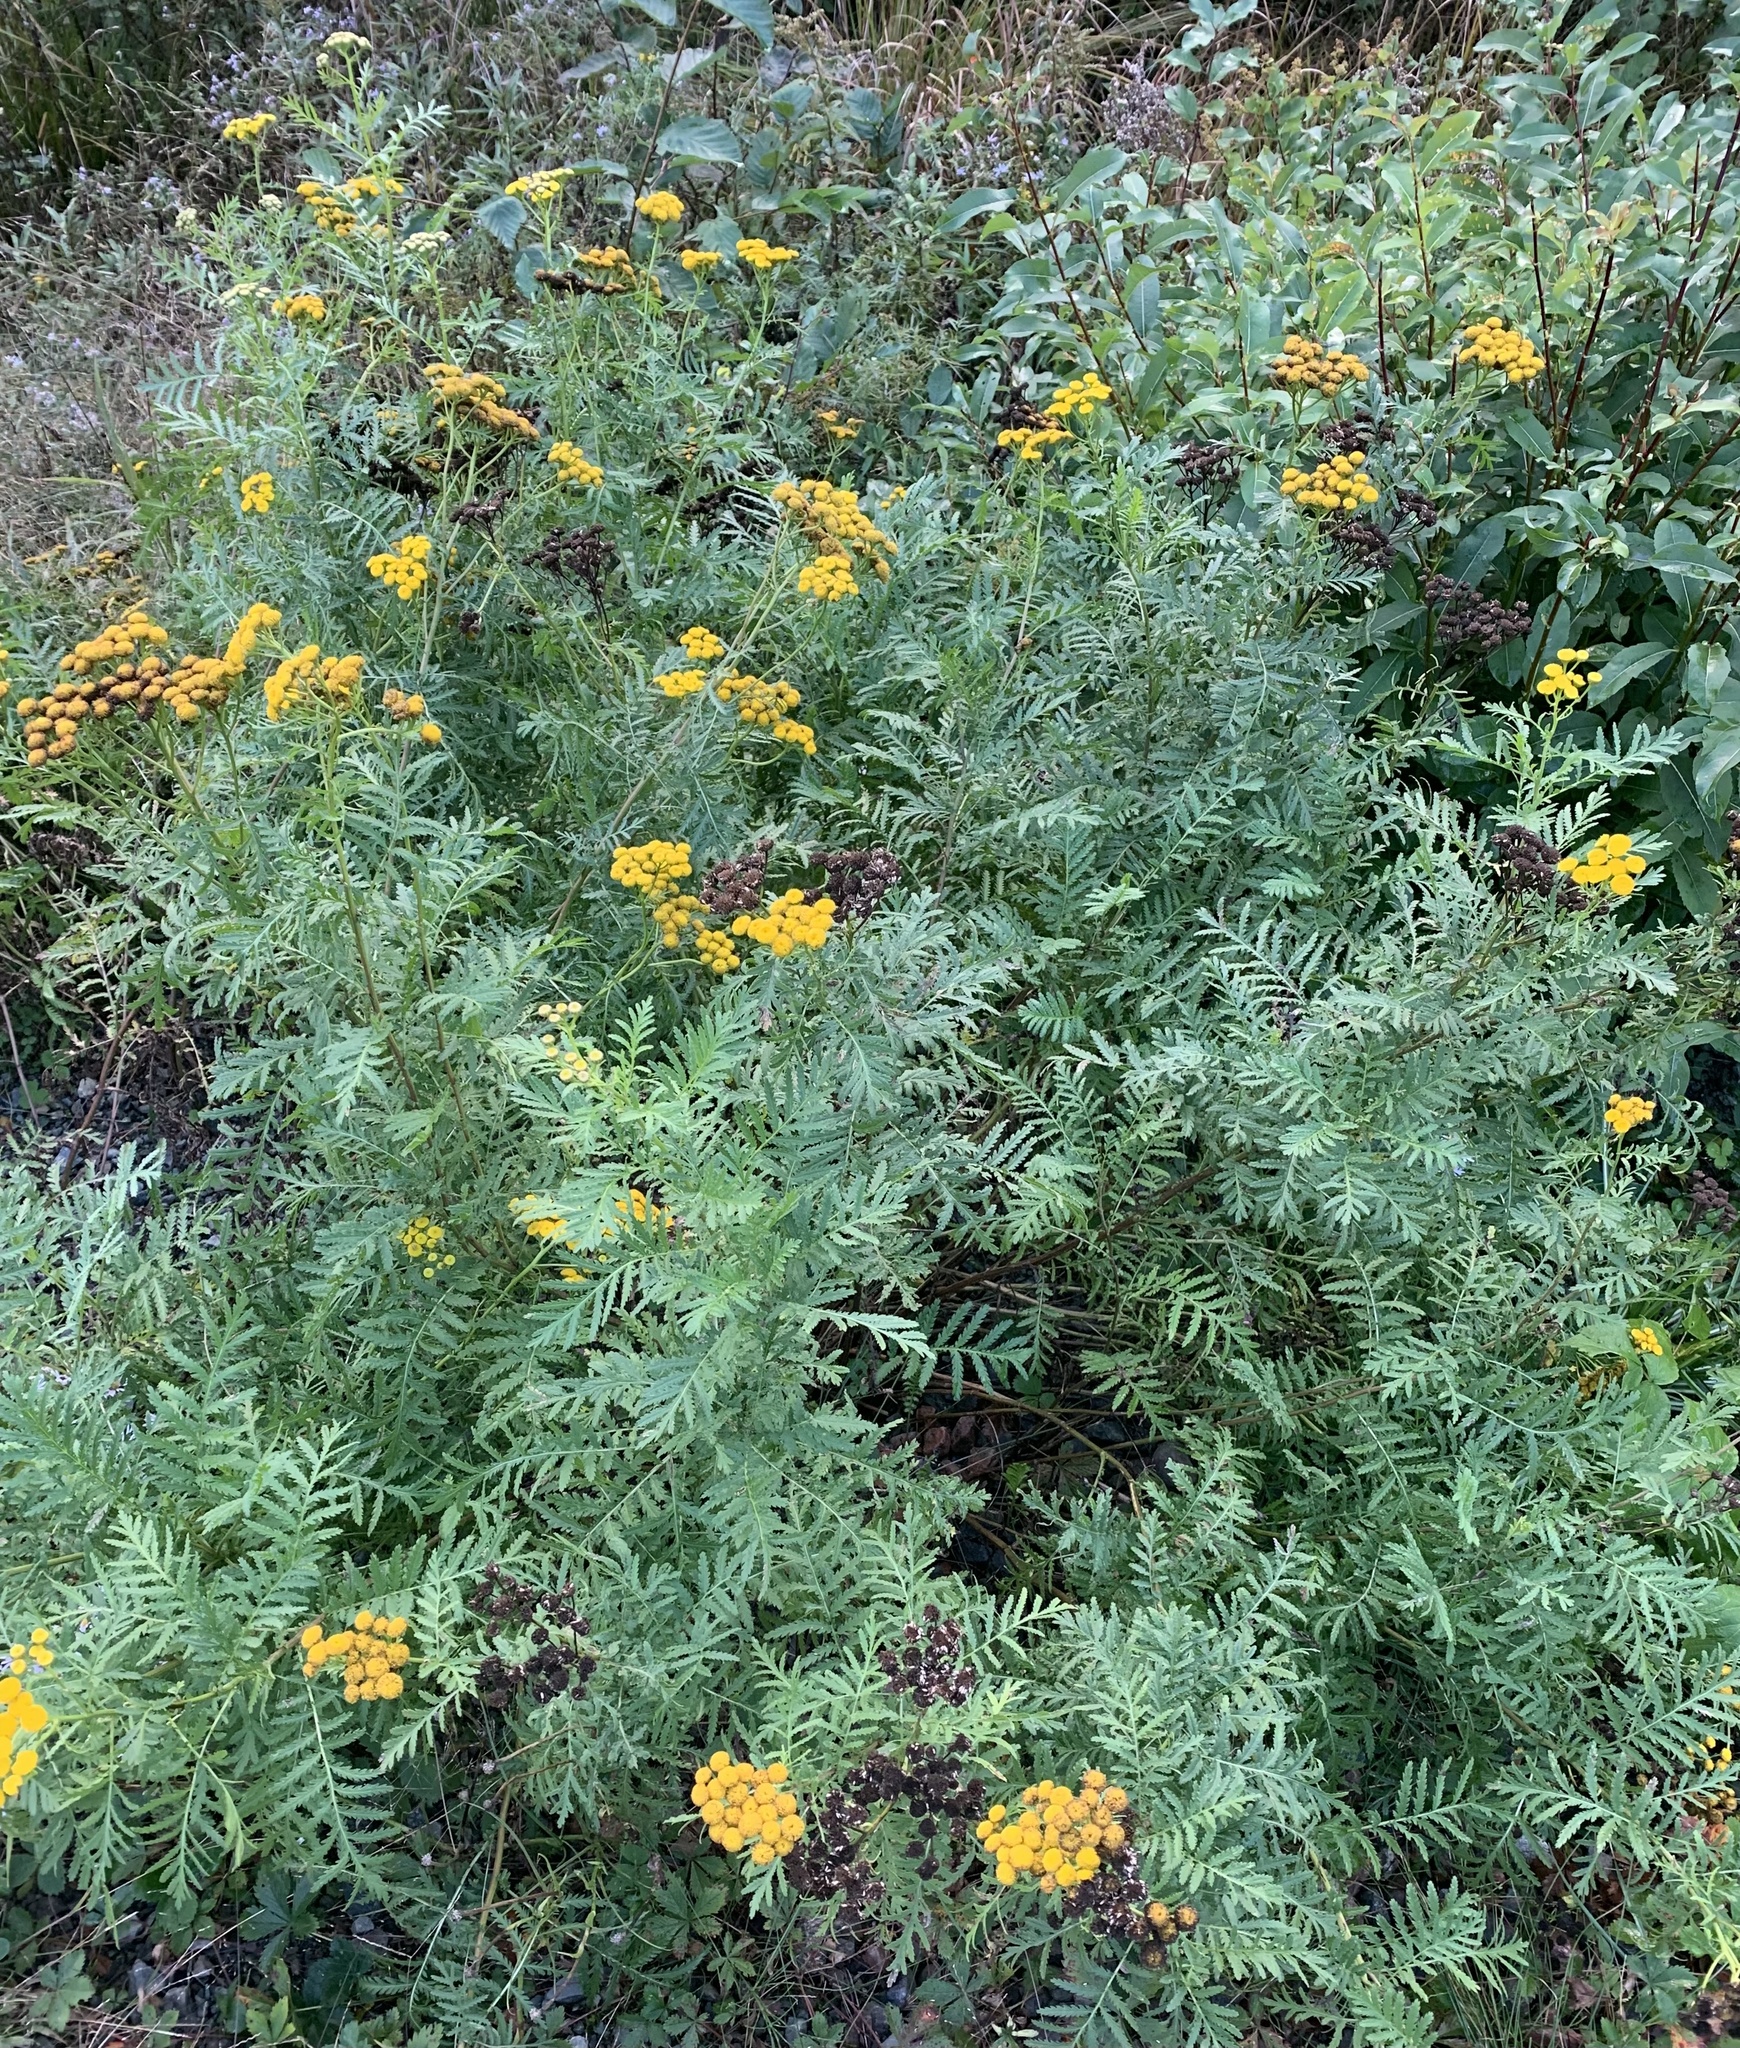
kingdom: Plantae
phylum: Tracheophyta
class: Magnoliopsida
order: Asterales
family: Asteraceae
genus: Tanacetum
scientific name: Tanacetum vulgare
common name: Common tansy
